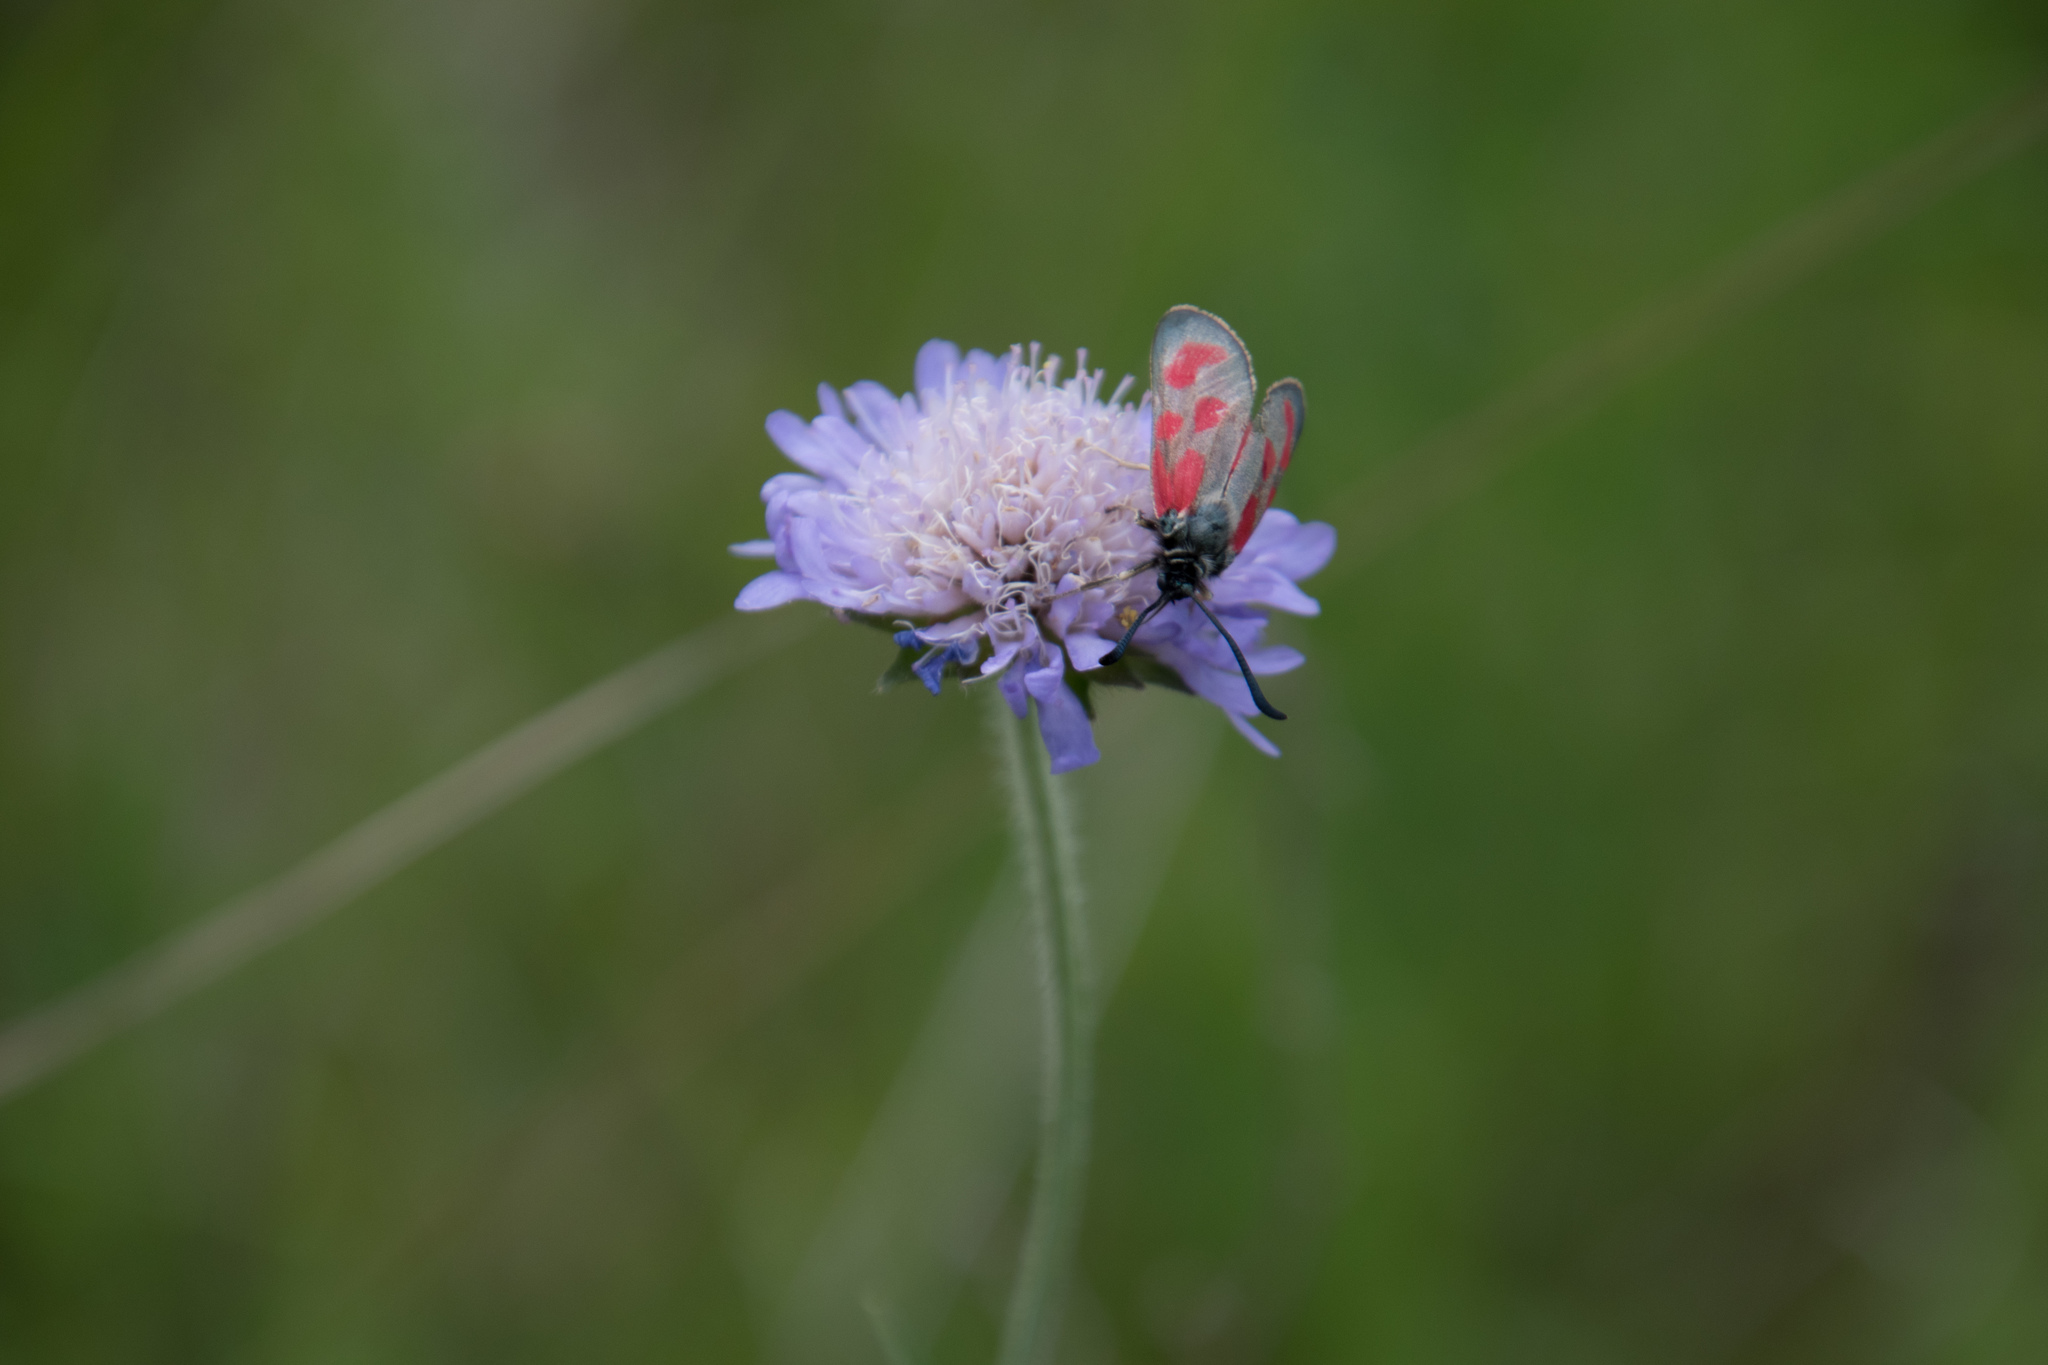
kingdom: Animalia
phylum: Arthropoda
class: Insecta
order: Lepidoptera
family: Zygaenidae
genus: Zygaena
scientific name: Zygaena loti
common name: Slender scotch burnet
